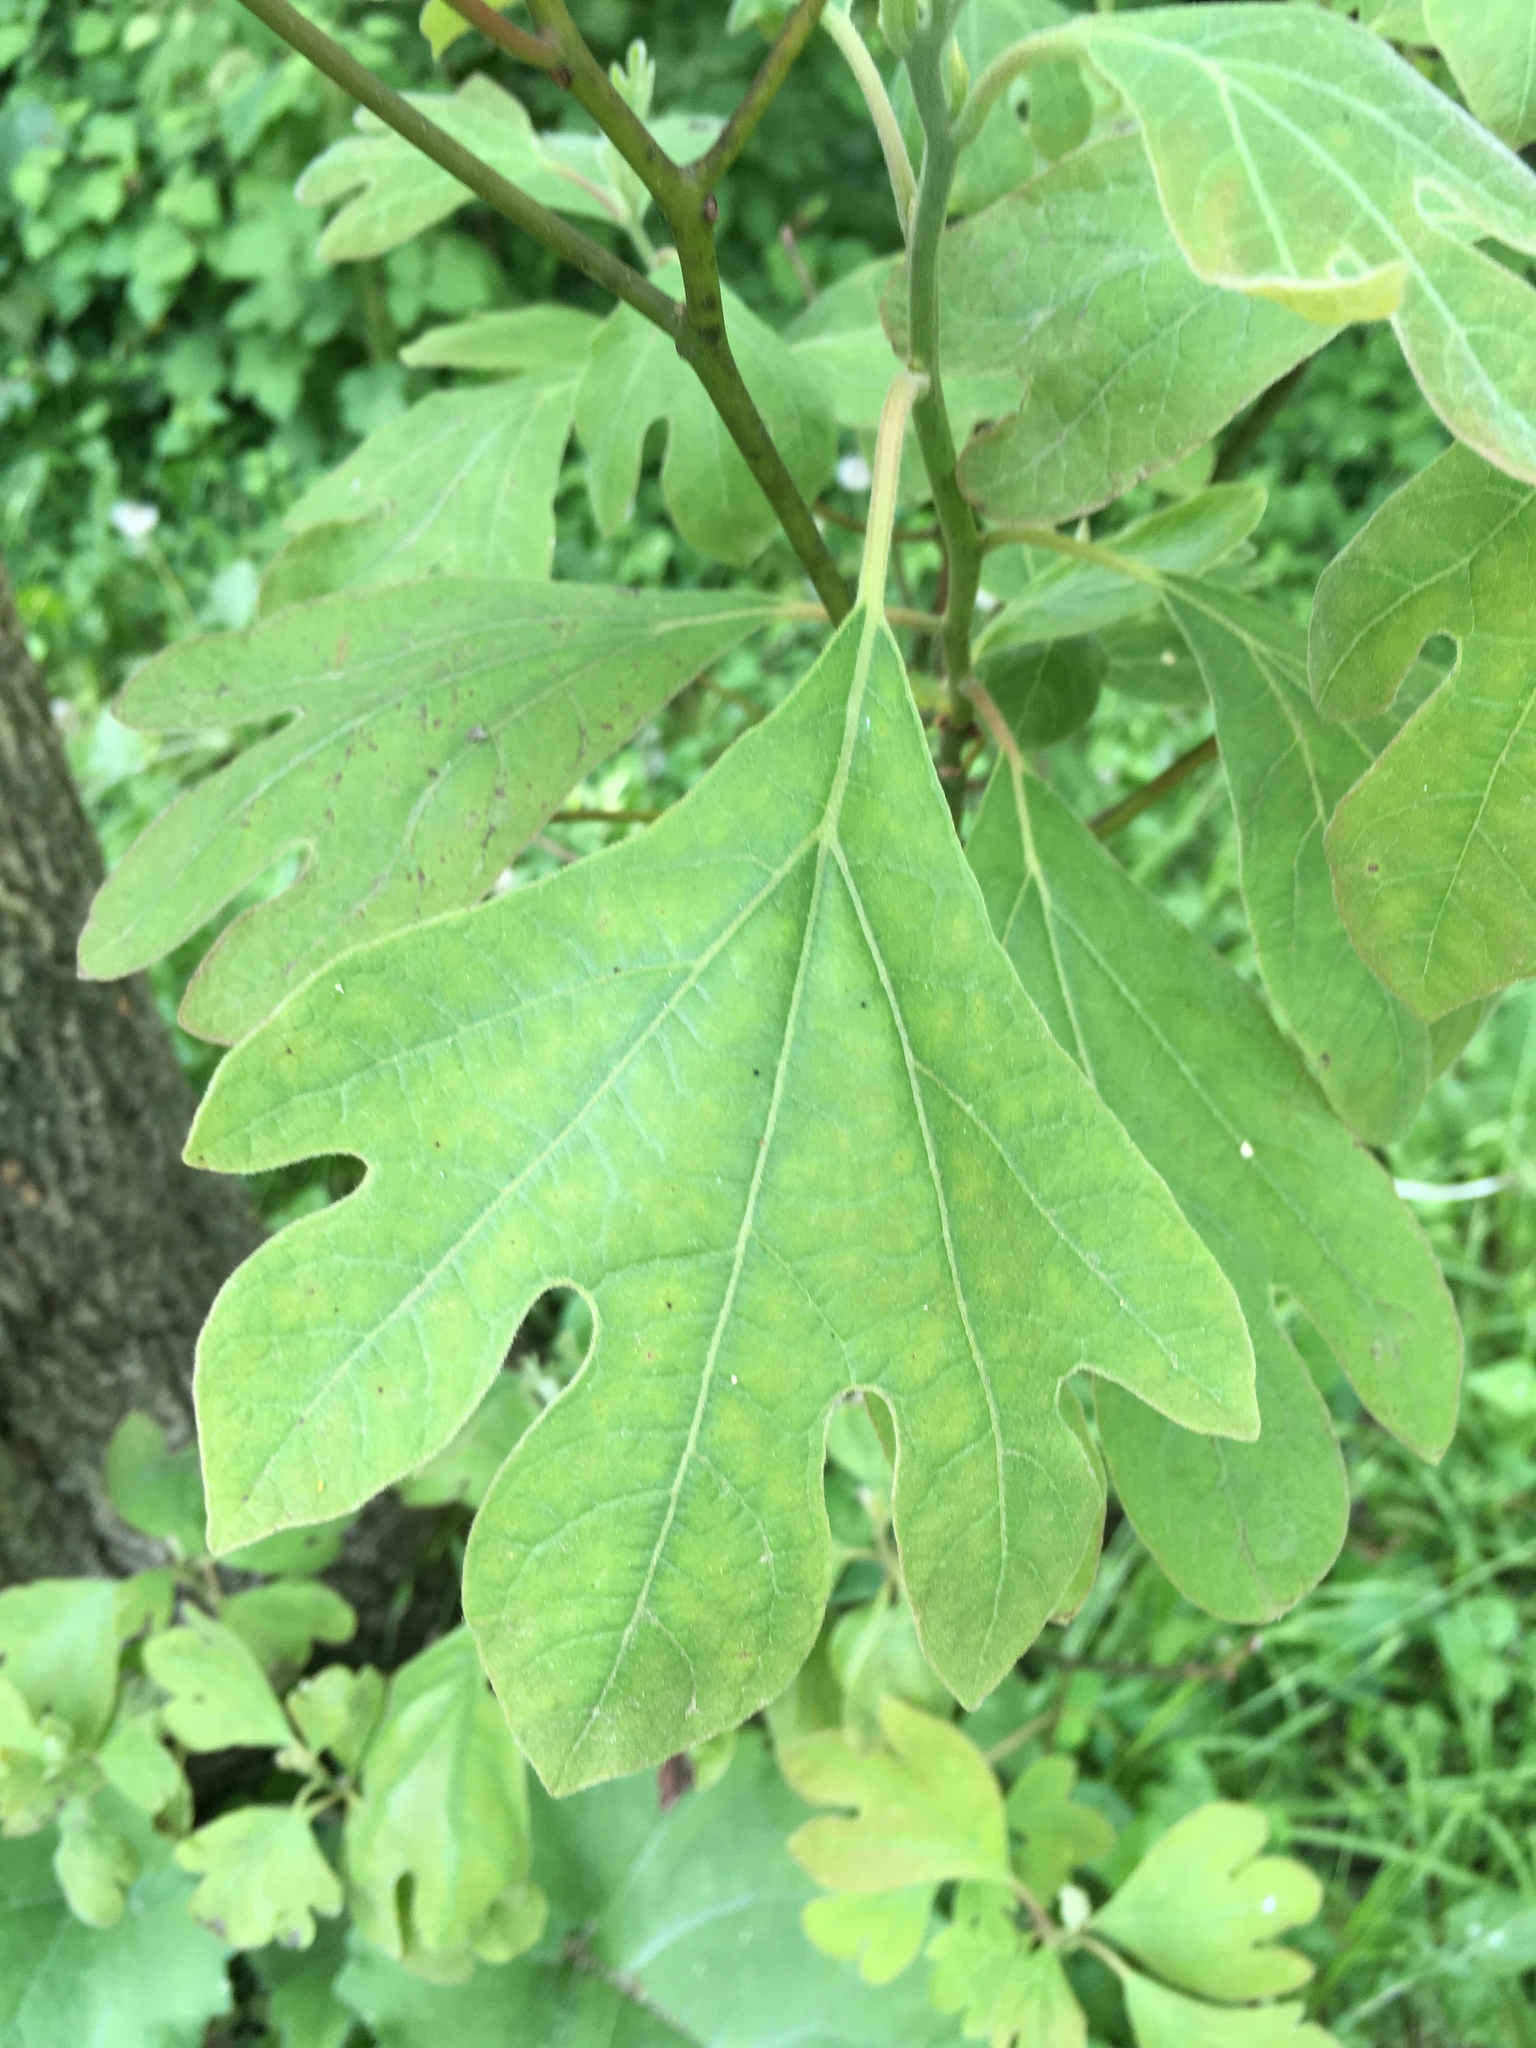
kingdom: Plantae
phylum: Tracheophyta
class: Magnoliopsida
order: Laurales
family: Lauraceae
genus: Sassafras
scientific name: Sassafras albidum
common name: Sassafras
